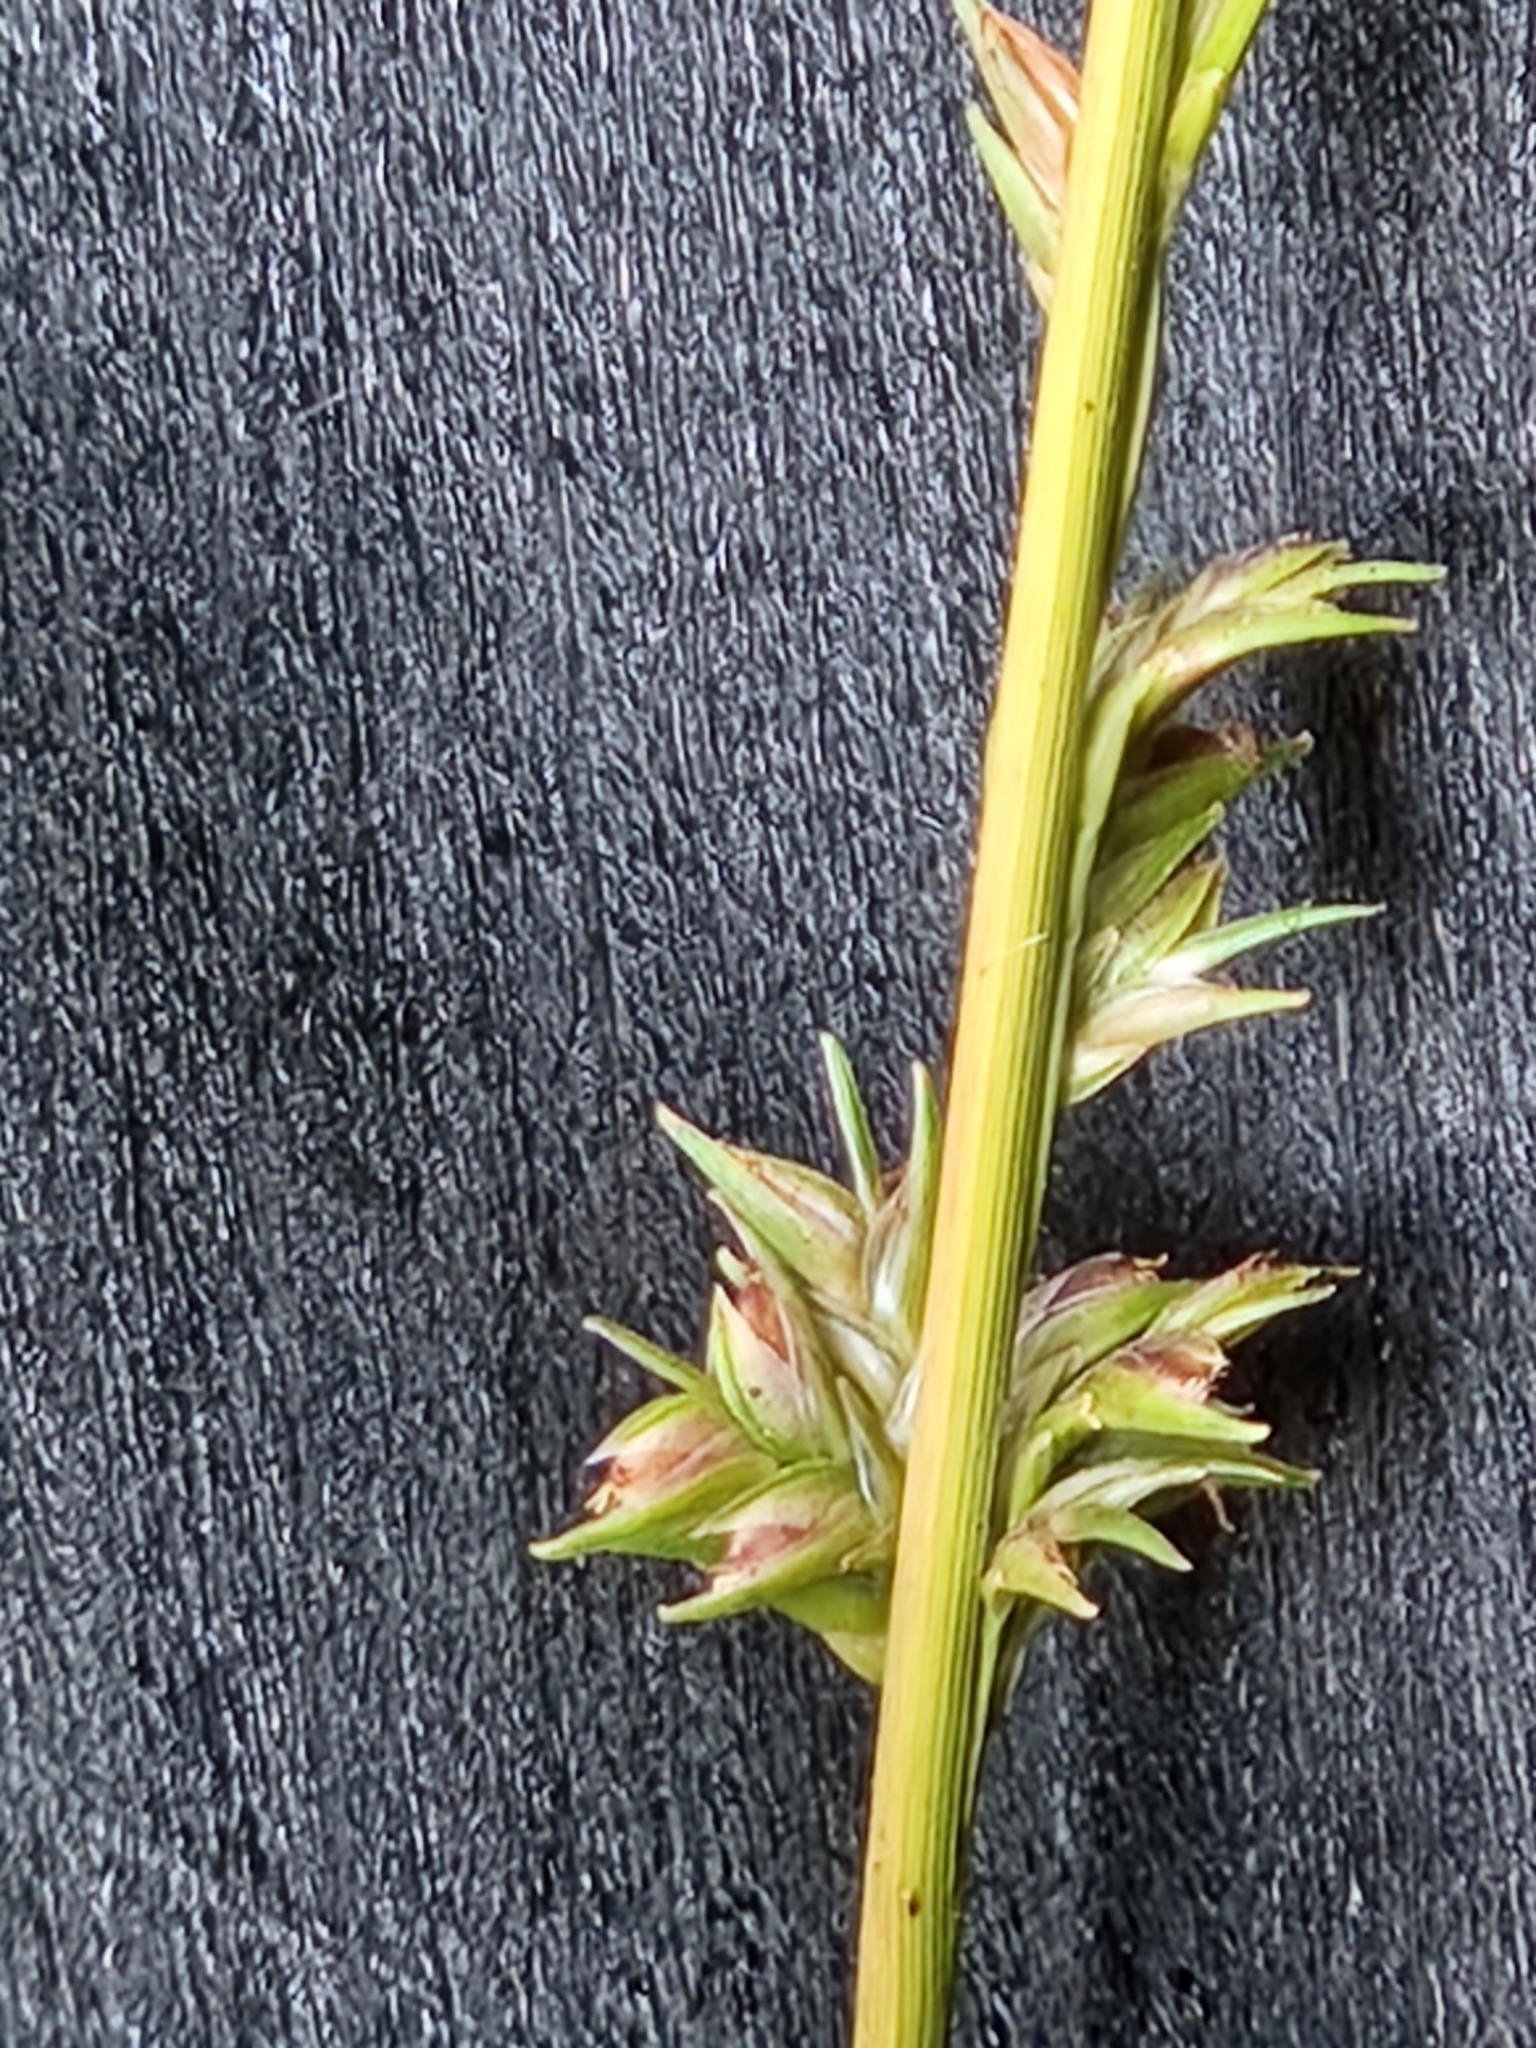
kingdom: Plantae
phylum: Tracheophyta
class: Liliopsida
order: Poales
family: Poaceae
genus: Chasmanthium
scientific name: Chasmanthium laxum
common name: Slender chasmanthium
